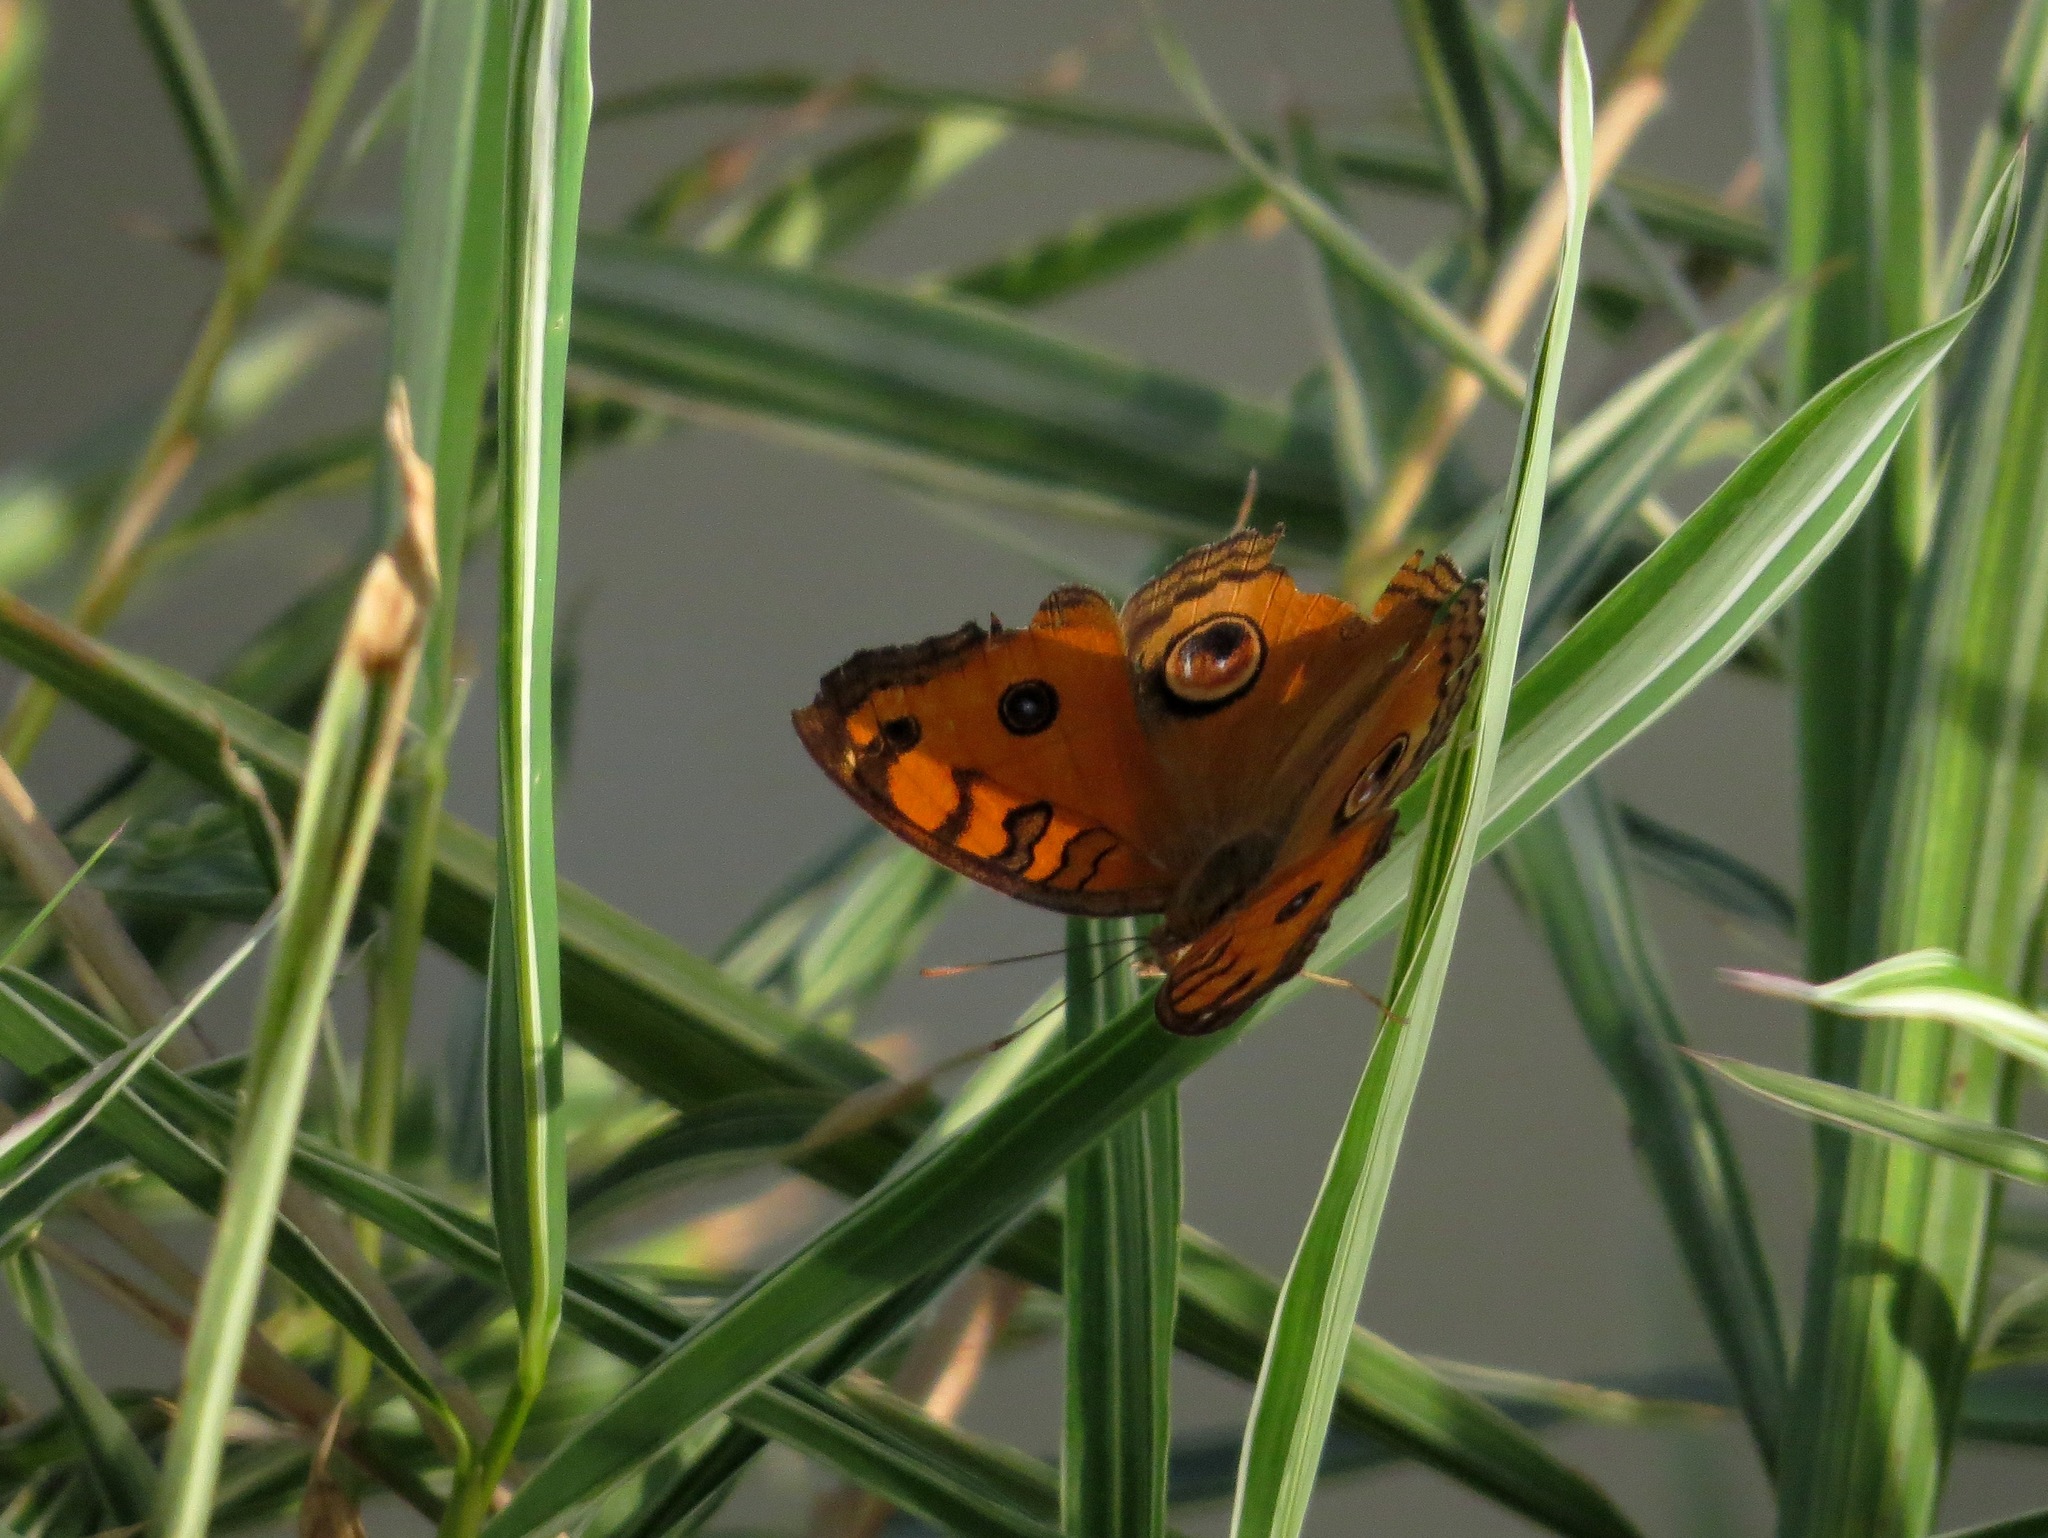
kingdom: Animalia
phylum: Arthropoda
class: Insecta
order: Lepidoptera
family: Nymphalidae
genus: Junonia
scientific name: Junonia almana
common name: Peacock pansy
